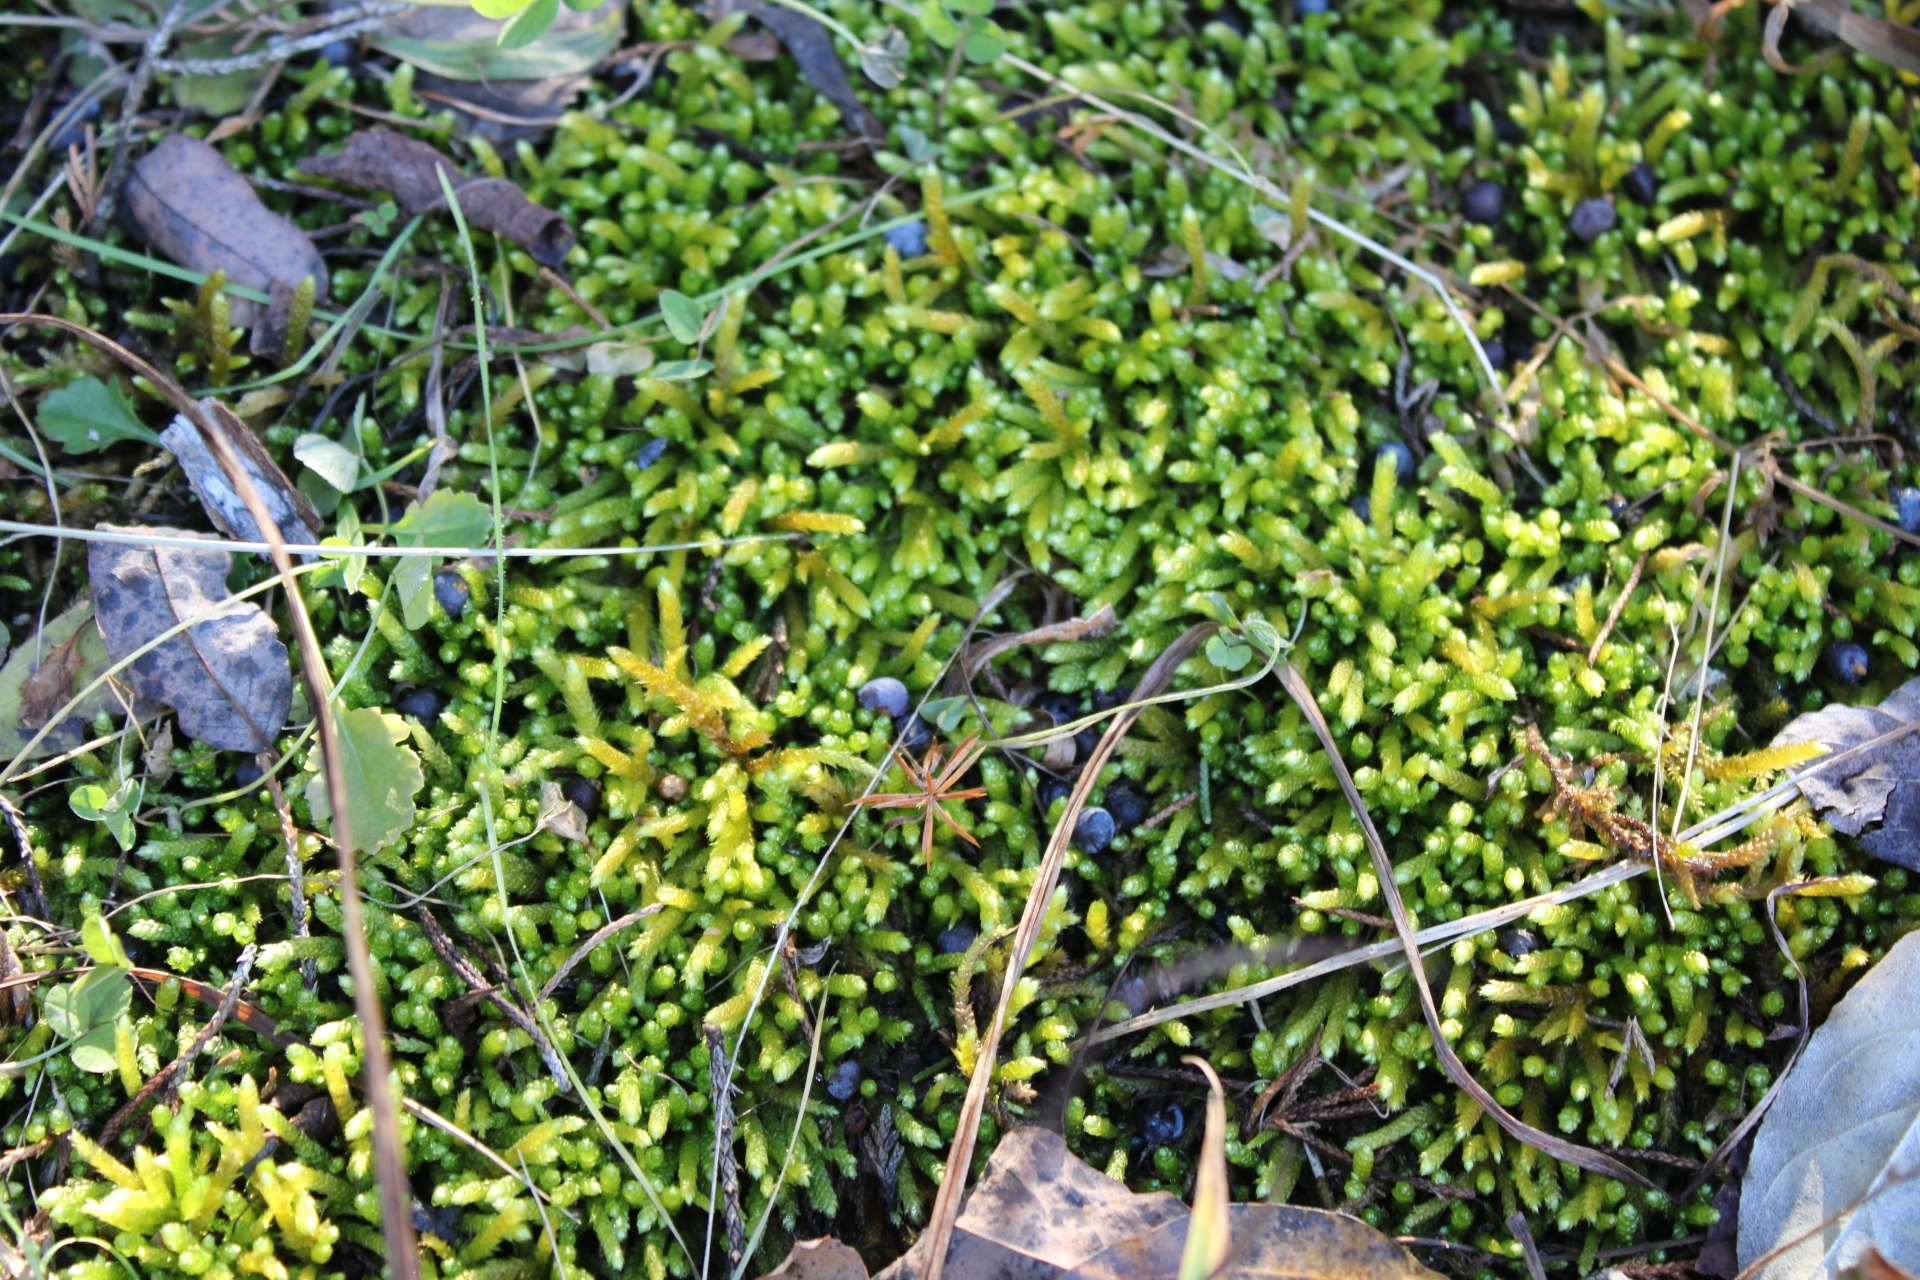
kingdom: Plantae
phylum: Bryophyta
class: Bryopsida
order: Hypnales
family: Brachytheciaceae
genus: Bryoandersonia
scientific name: Bryoandersonia illecebra
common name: Spoon-leaved moss
